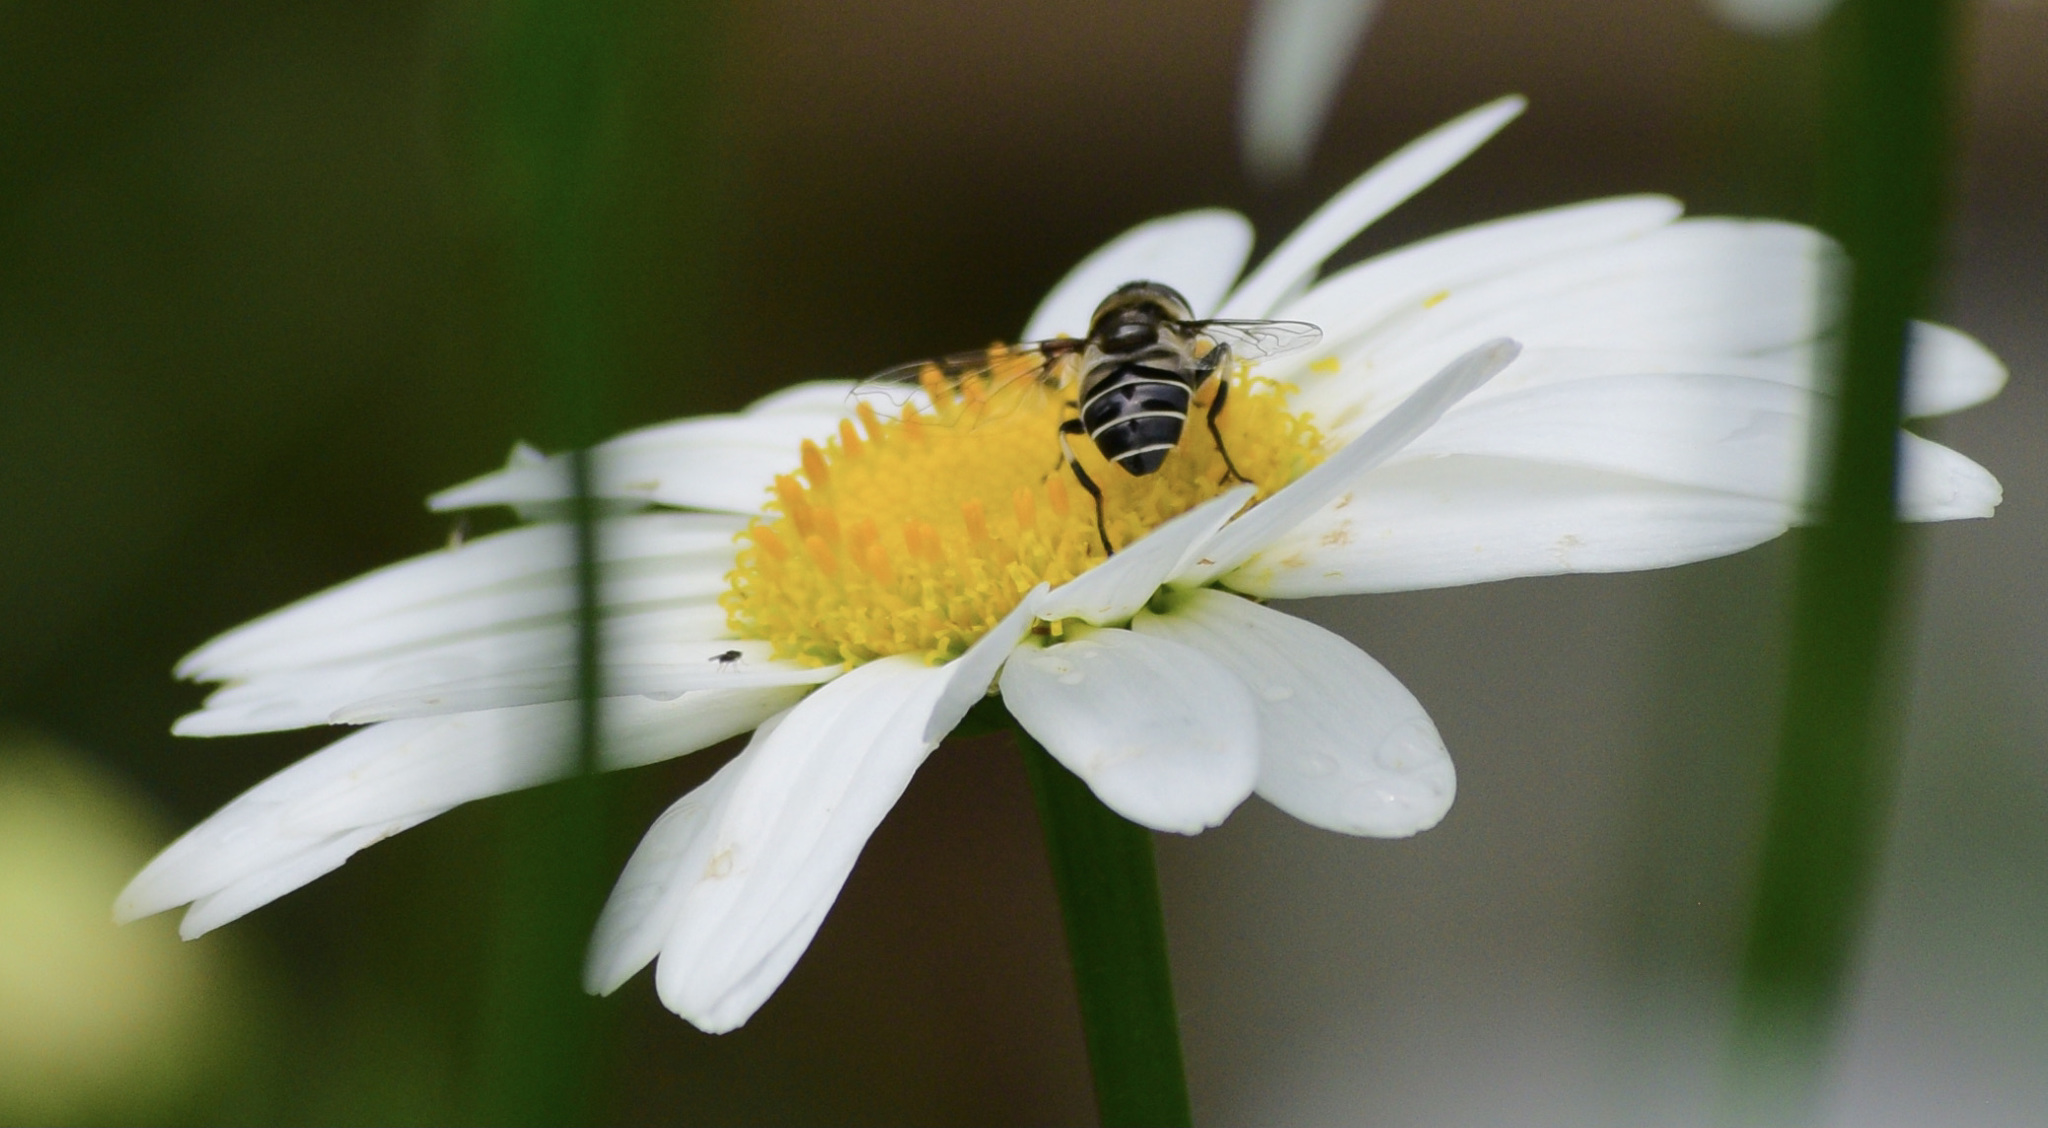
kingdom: Animalia
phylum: Arthropoda
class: Insecta
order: Diptera
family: Syrphidae
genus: Eristalis
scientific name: Eristalis dimidiata
